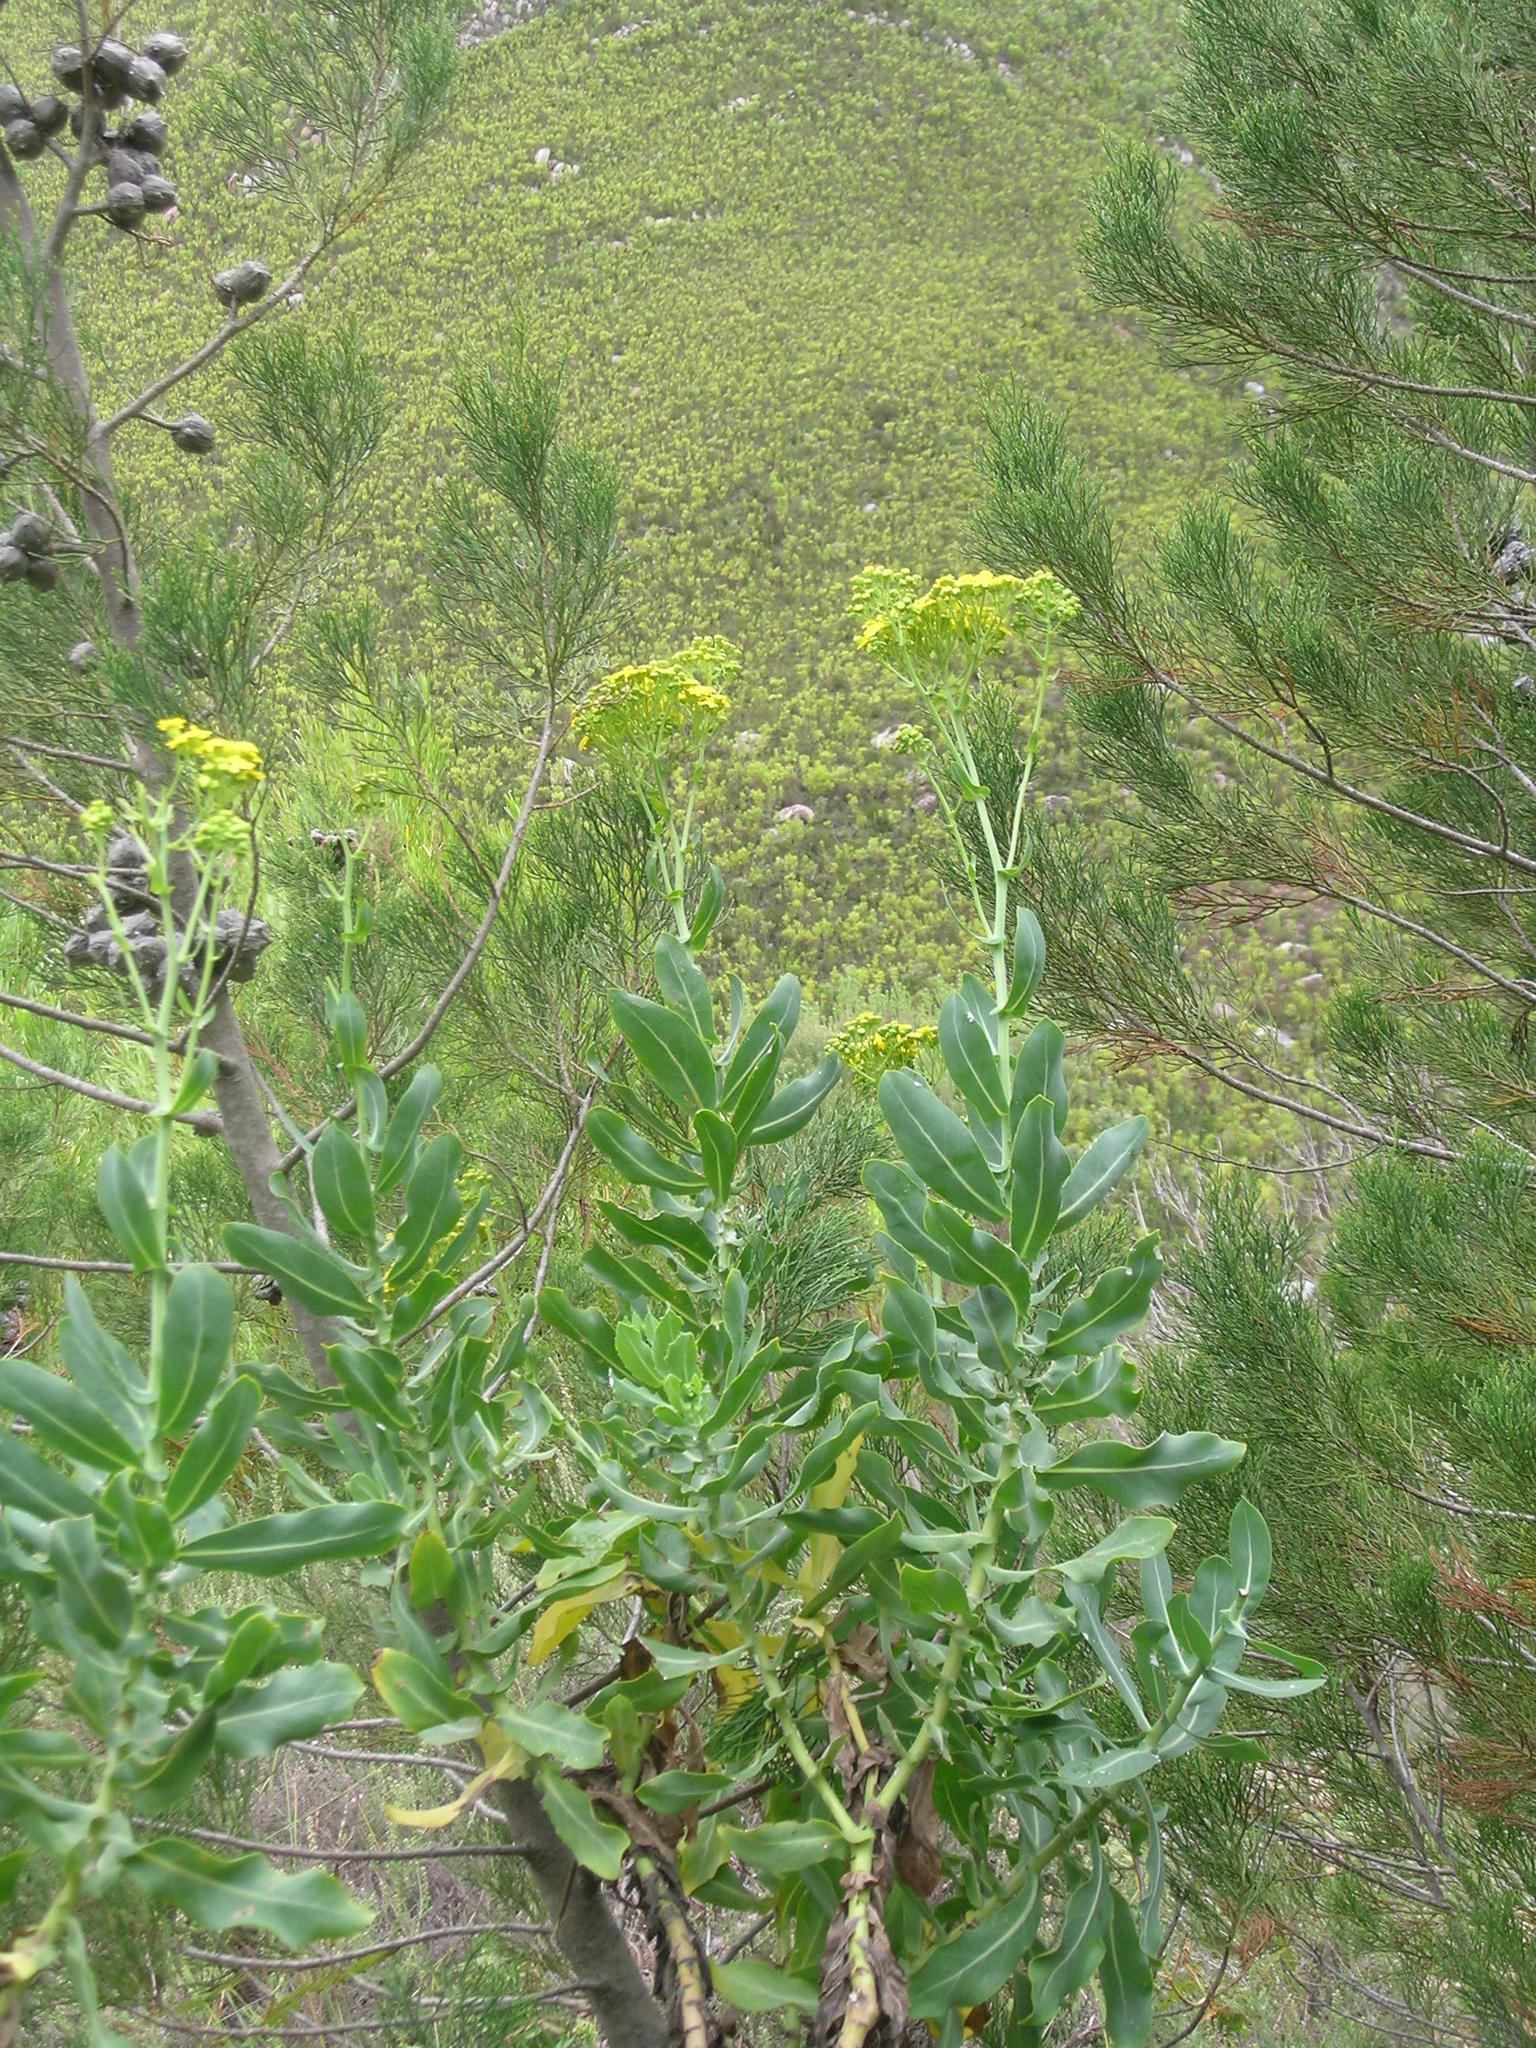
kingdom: Plantae
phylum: Tracheophyta
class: Magnoliopsida
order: Asterales
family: Asteraceae
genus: Othonna
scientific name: Othonna parviflora
